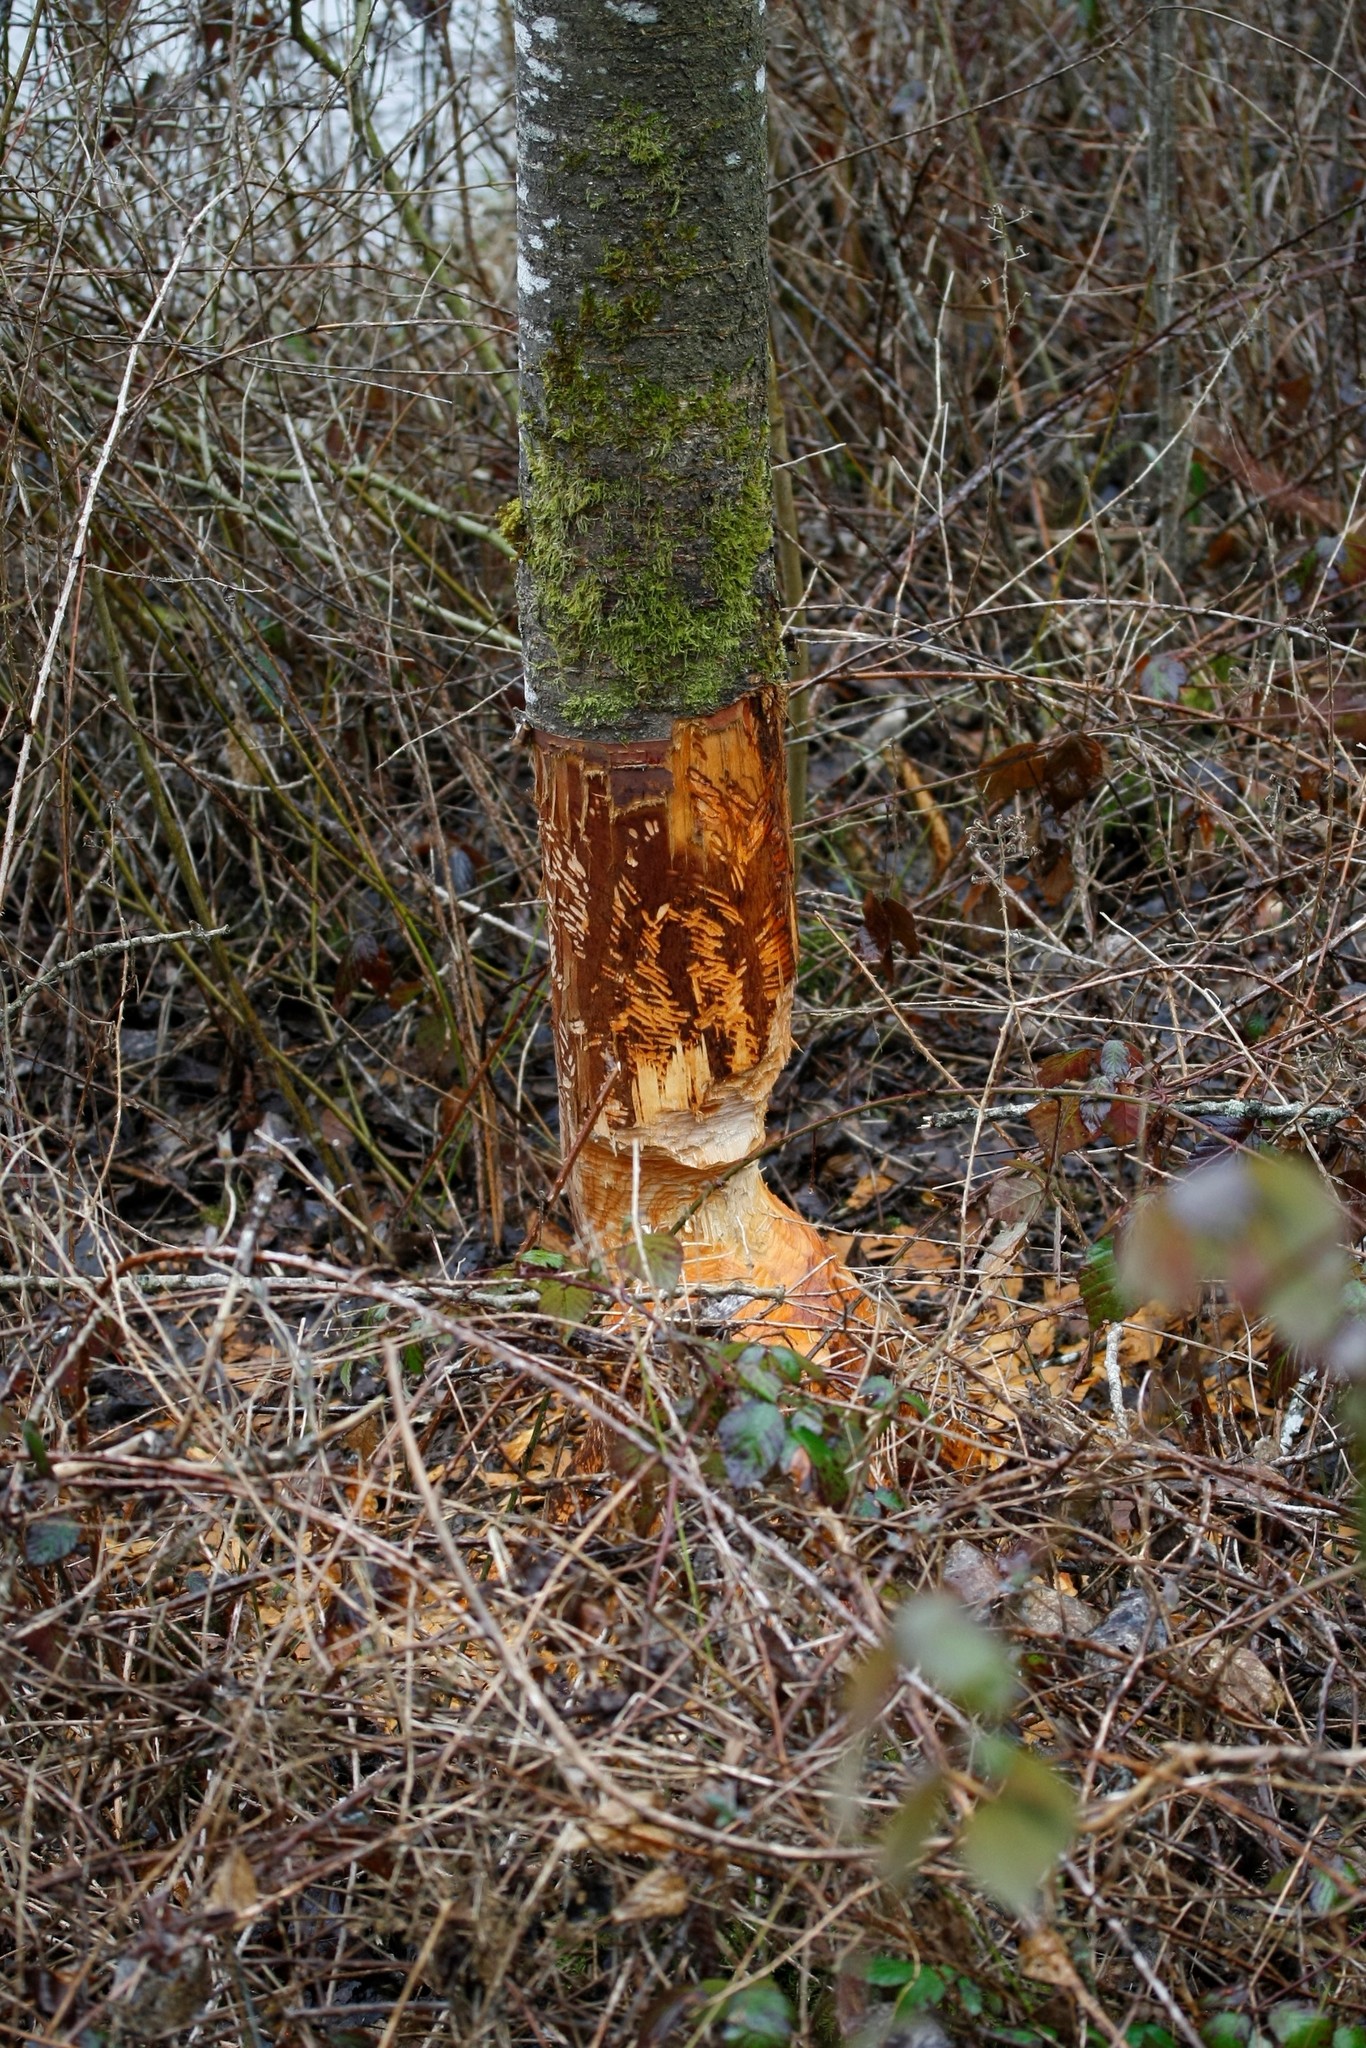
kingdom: Animalia
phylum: Chordata
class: Mammalia
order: Rodentia
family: Castoridae
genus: Castor
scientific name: Castor fiber
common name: Eurasian beaver
